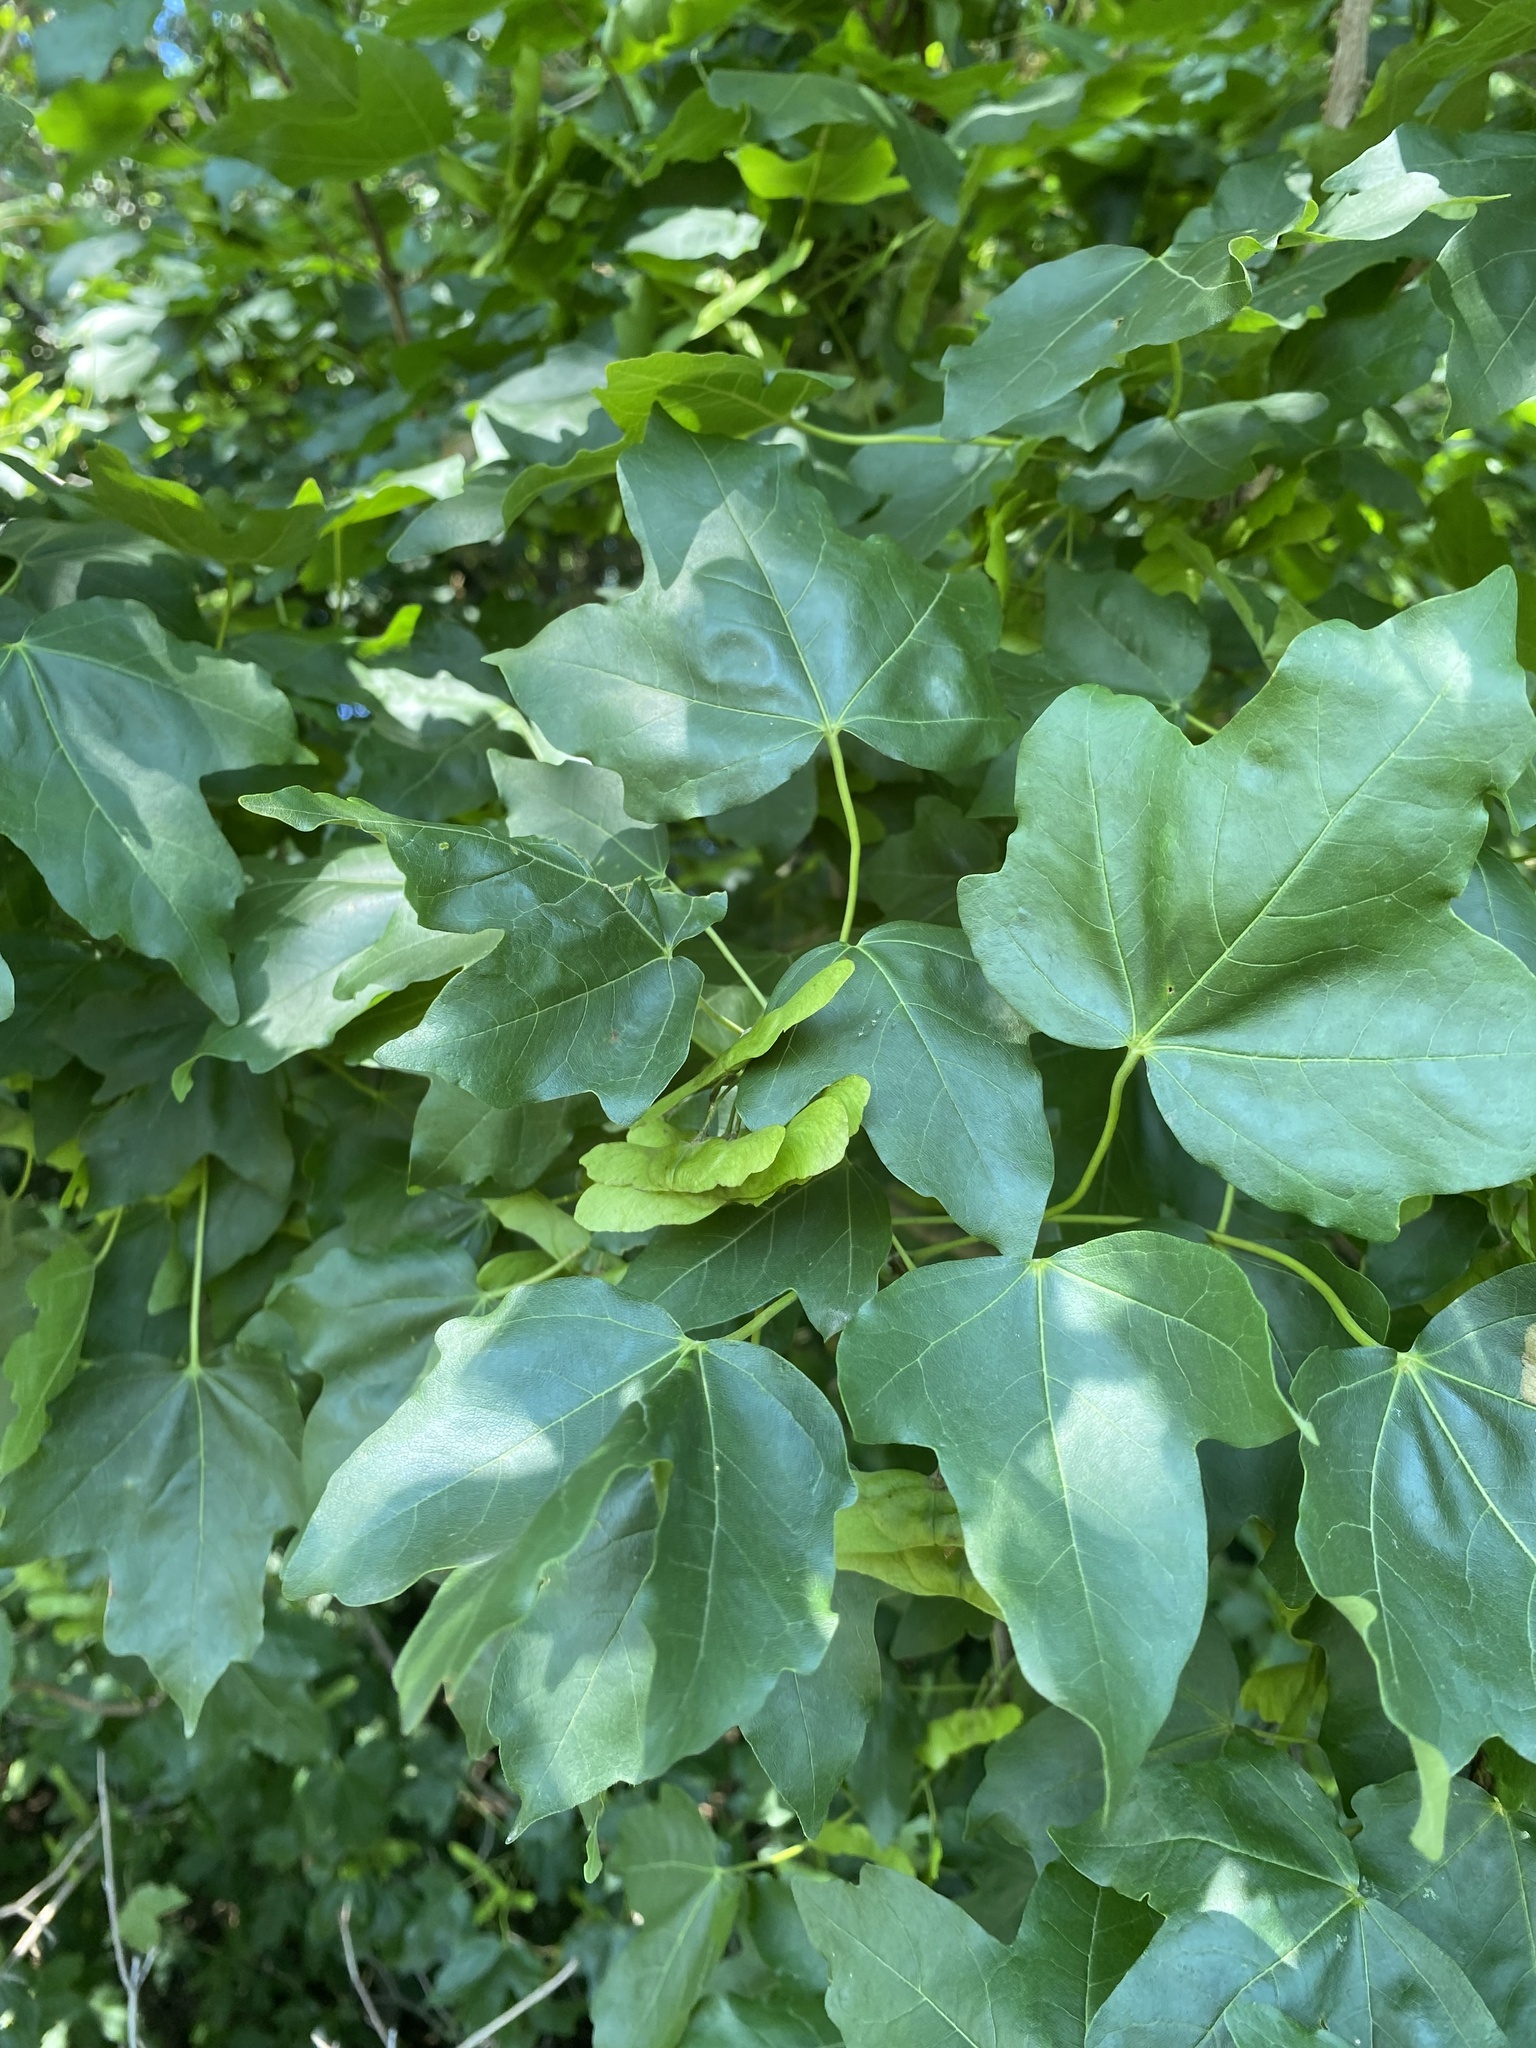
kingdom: Plantae
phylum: Tracheophyta
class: Magnoliopsida
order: Sapindales
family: Sapindaceae
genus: Acer
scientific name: Acer campestre
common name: Field maple
